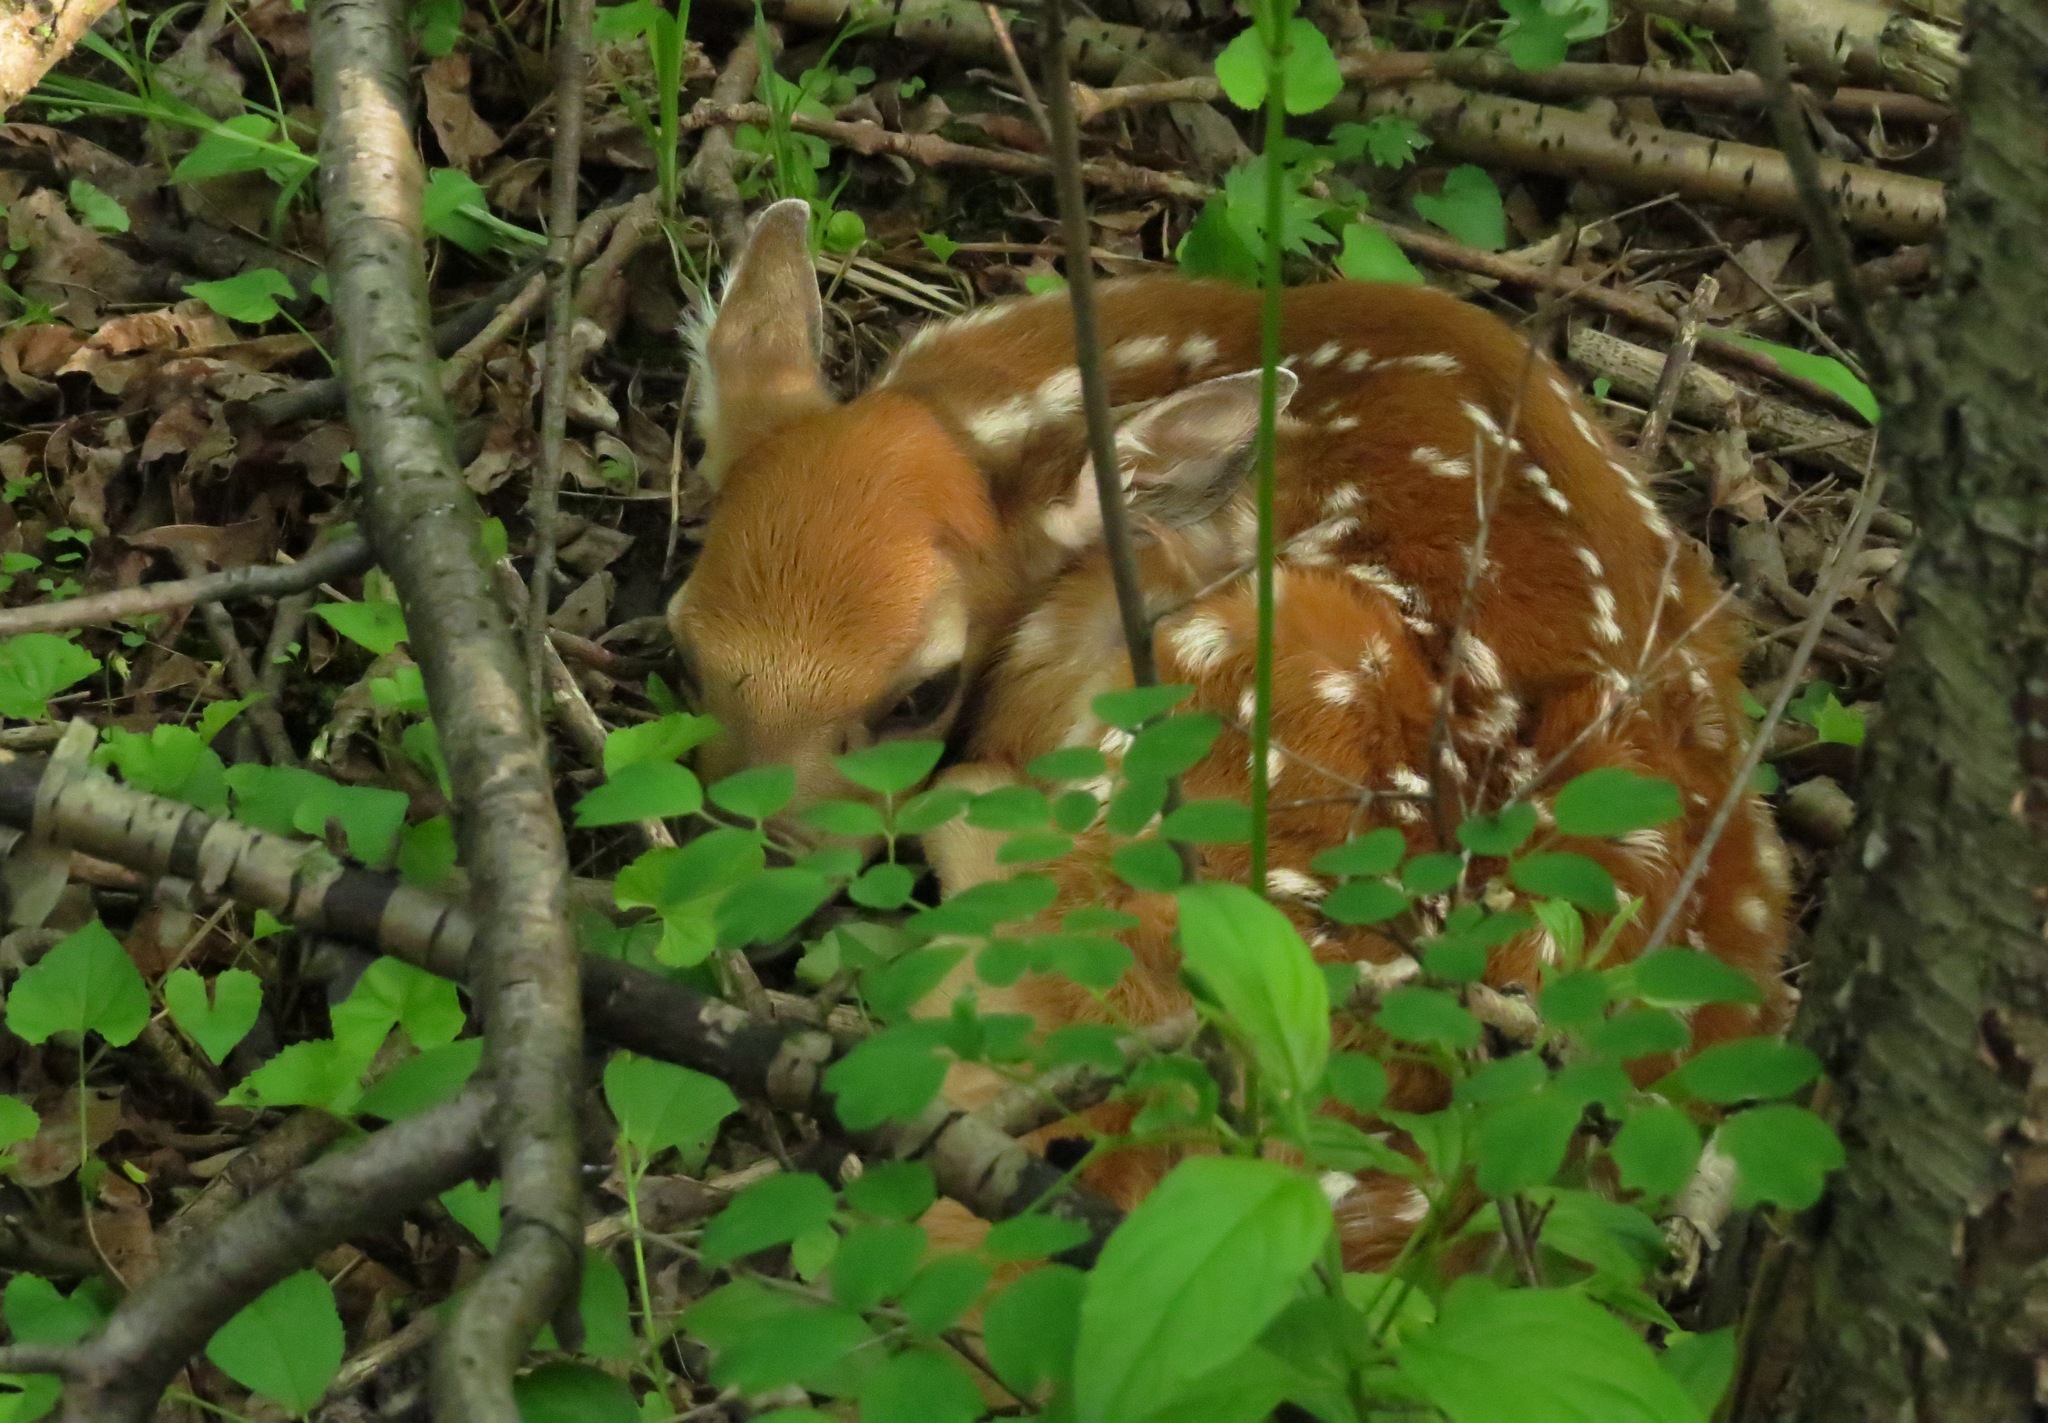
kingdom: Animalia
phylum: Chordata
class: Mammalia
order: Artiodactyla
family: Cervidae
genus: Odocoileus
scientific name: Odocoileus virginianus
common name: White-tailed deer
